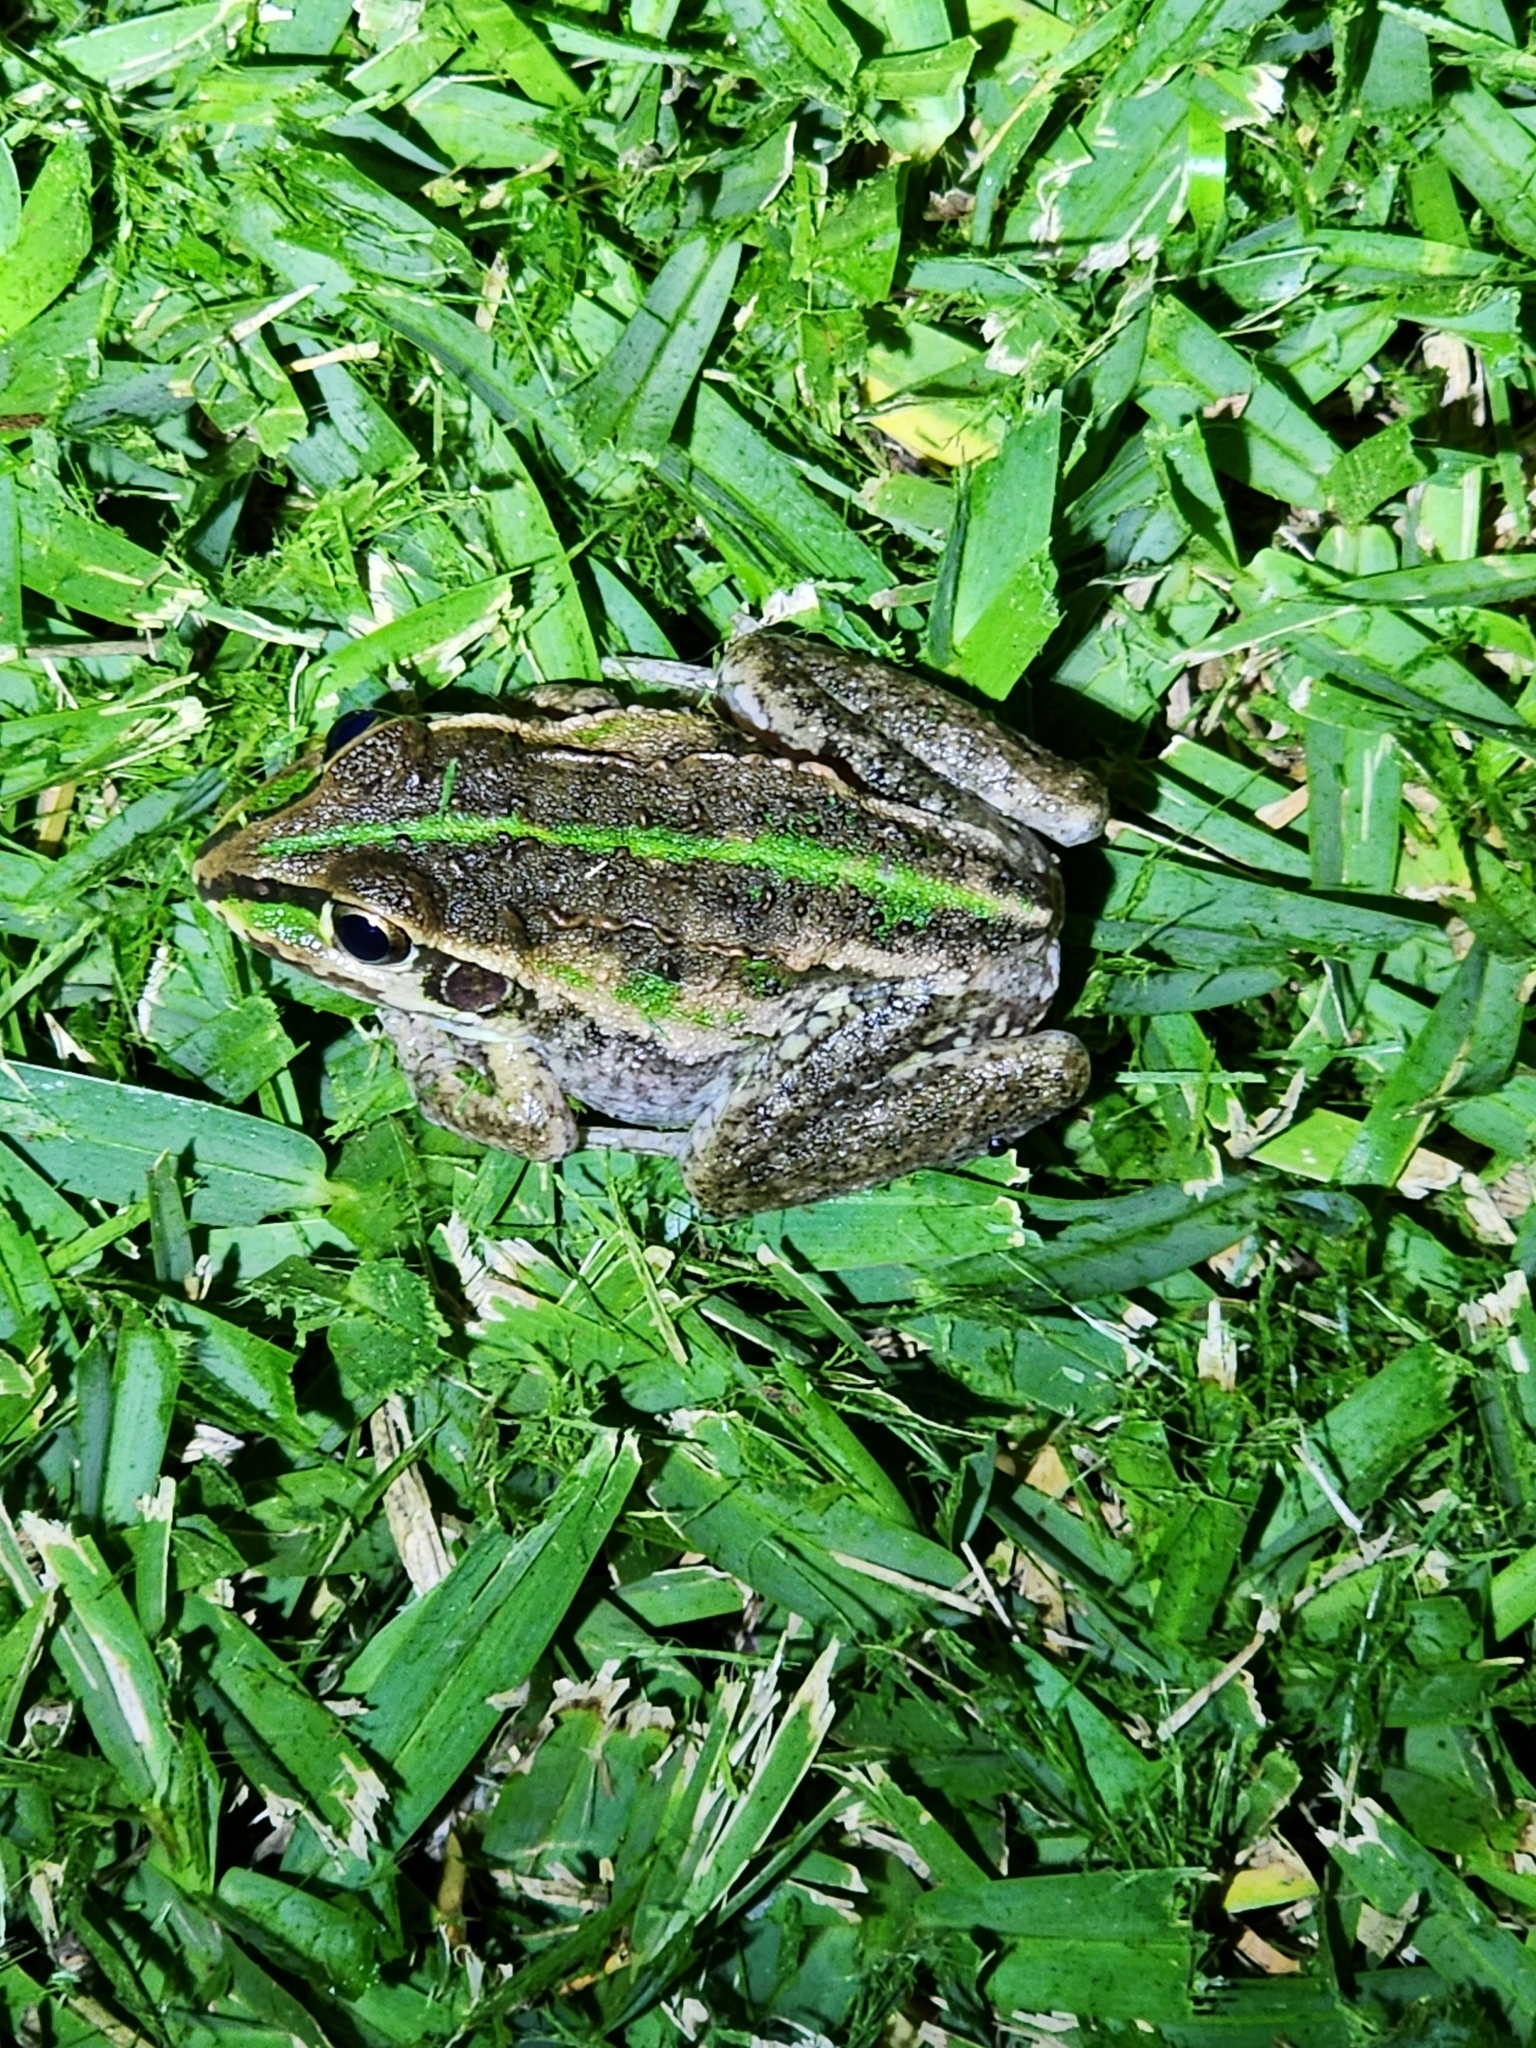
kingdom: Animalia
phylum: Chordata
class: Amphibia
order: Anura
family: Pelodryadidae
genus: Ranoidea
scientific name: Ranoidea alboguttata
